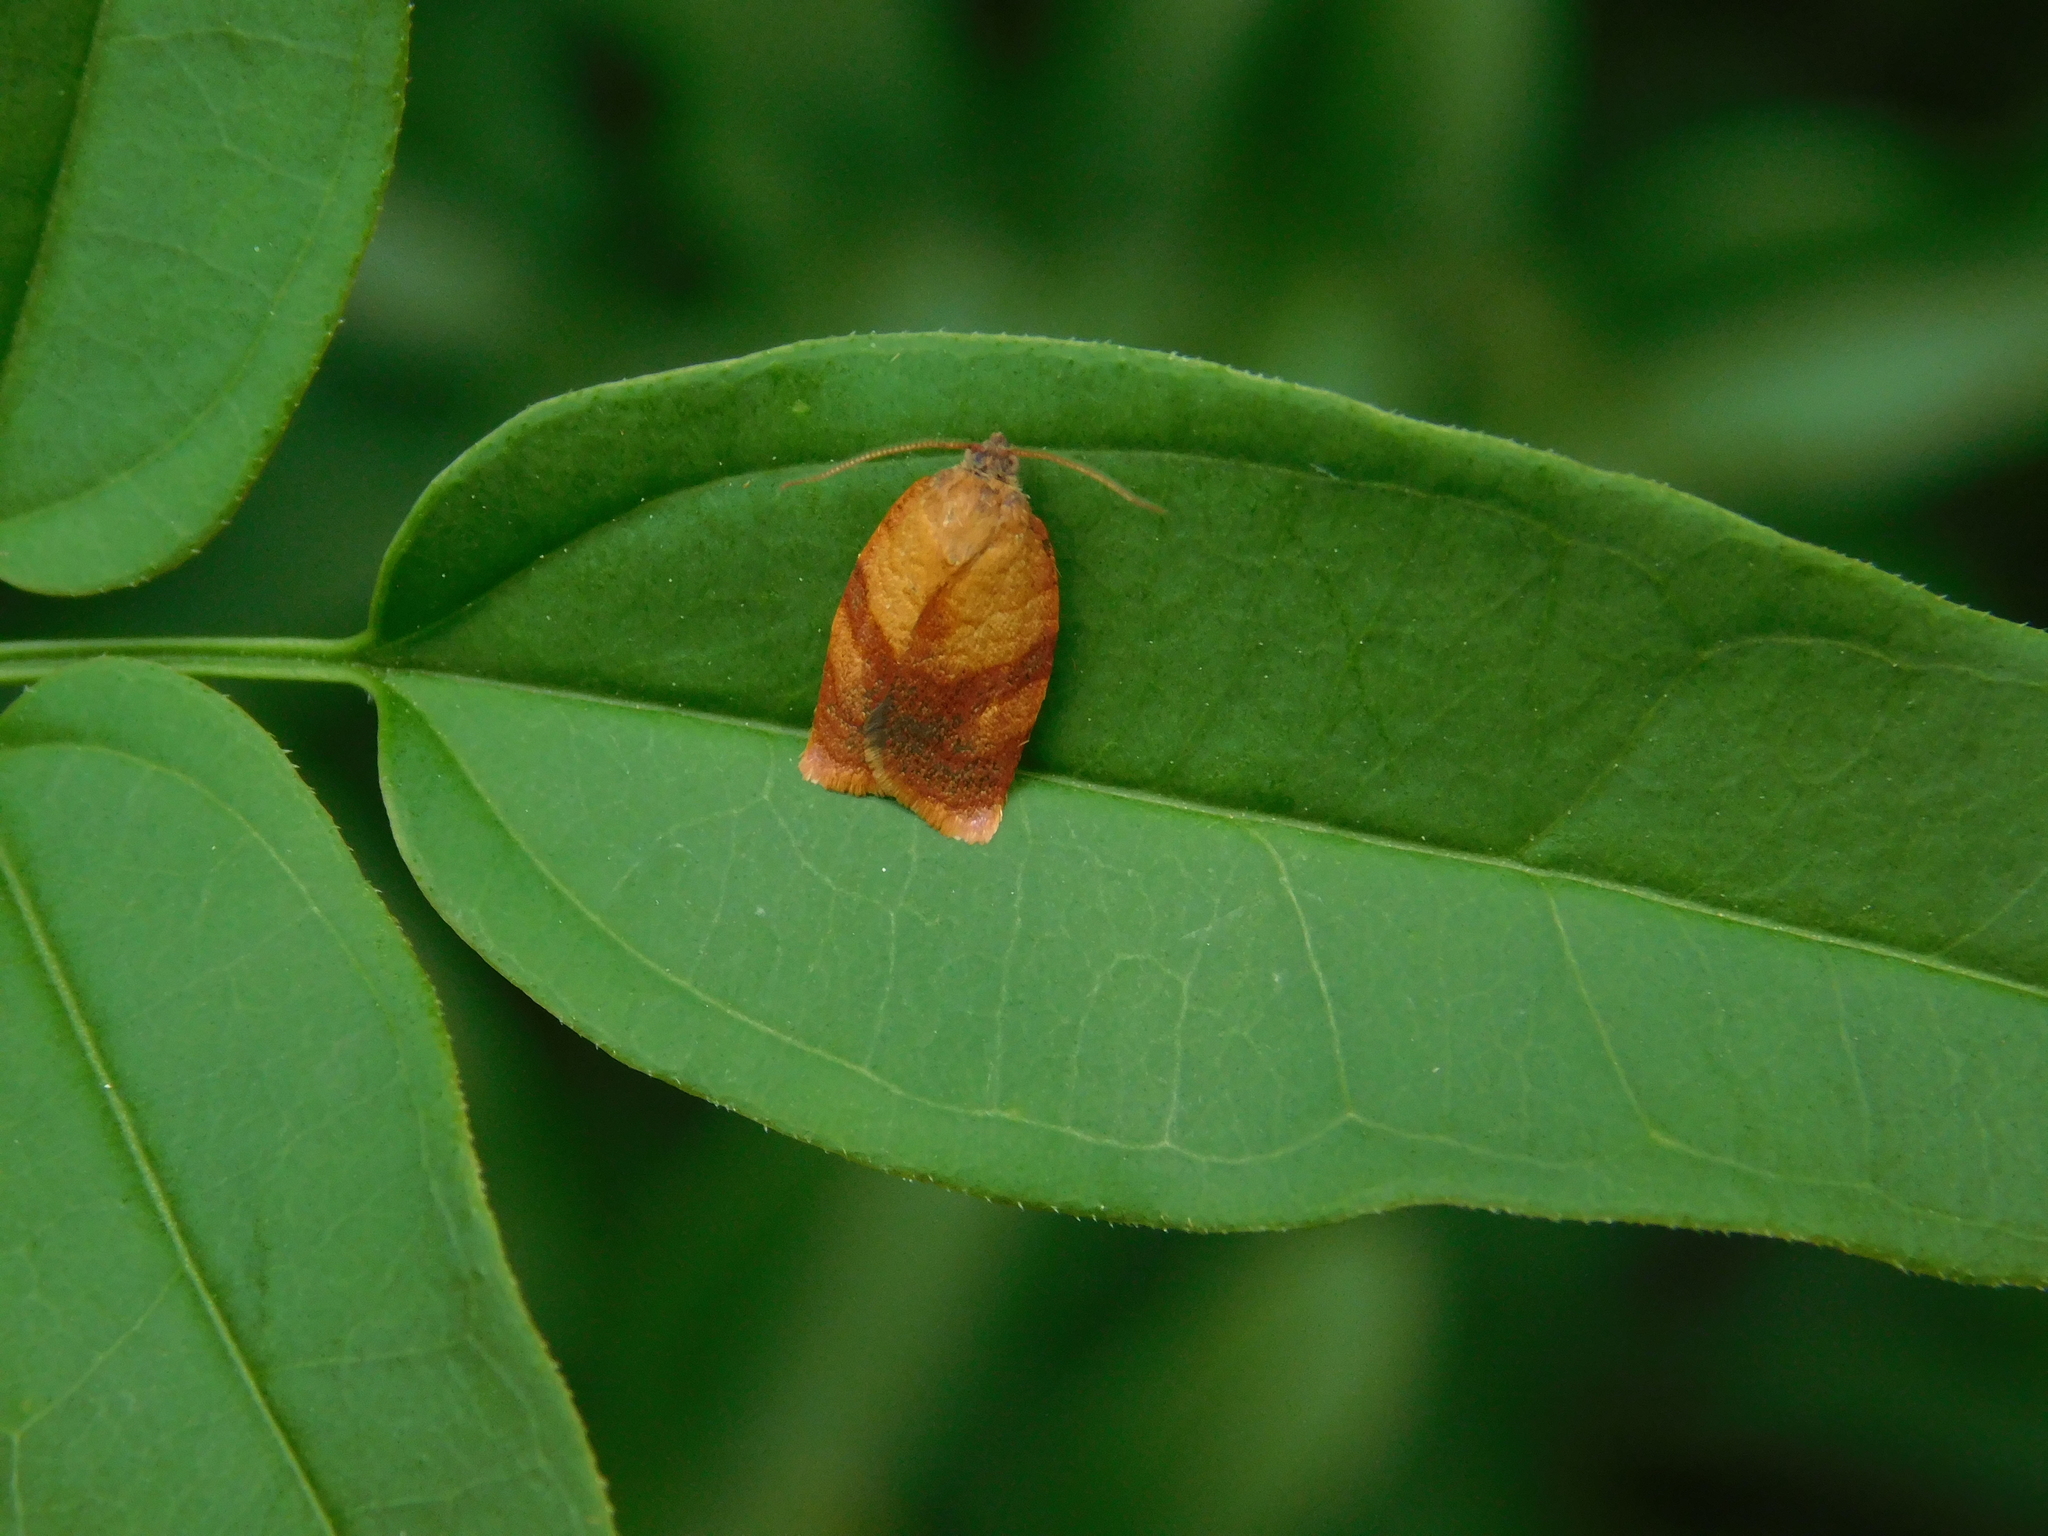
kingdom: Animalia
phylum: Arthropoda
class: Insecta
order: Lepidoptera
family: Tortricidae
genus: Cacoecimorpha
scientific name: Cacoecimorpha pronubana
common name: Carnation tortrix
